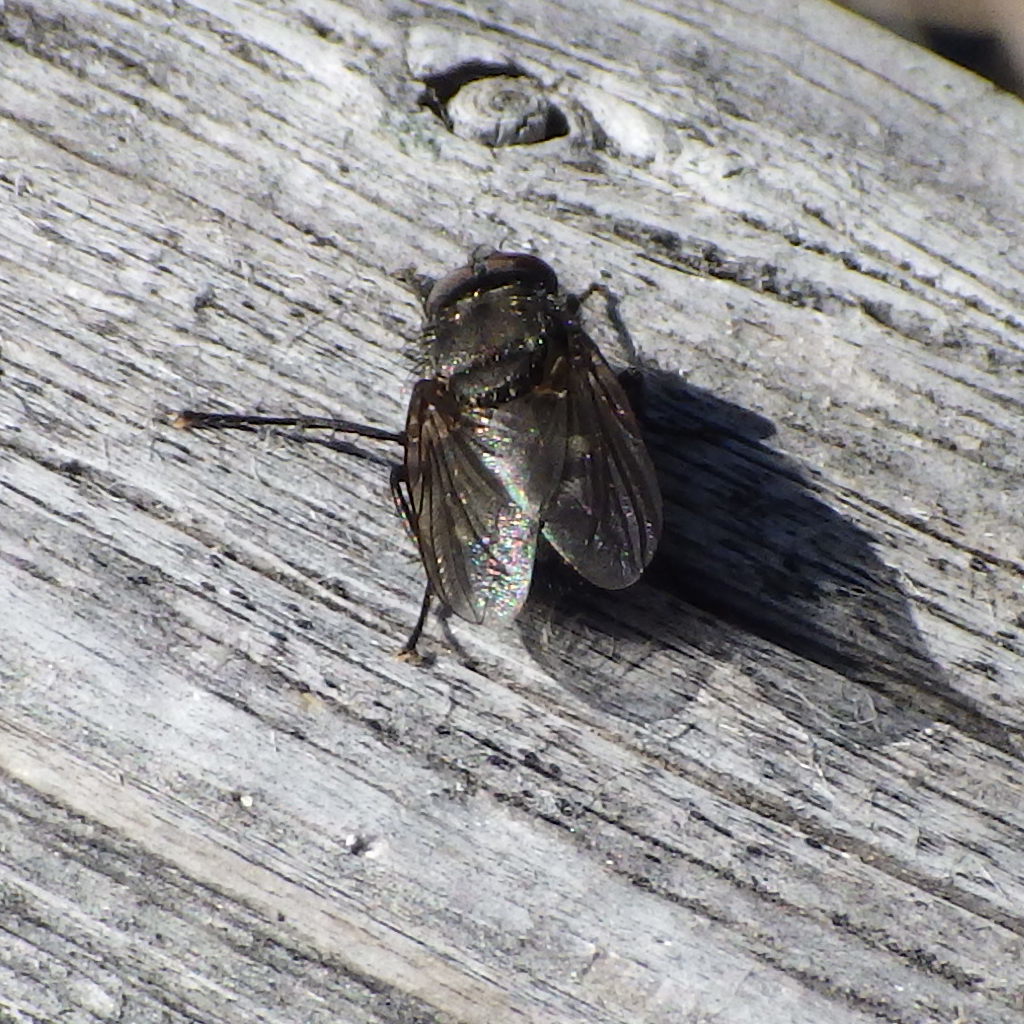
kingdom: Animalia
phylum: Arthropoda
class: Insecta
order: Diptera
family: Polleniidae
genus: Pollenia
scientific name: Pollenia vagabunda
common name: Vagabund cluster fly
